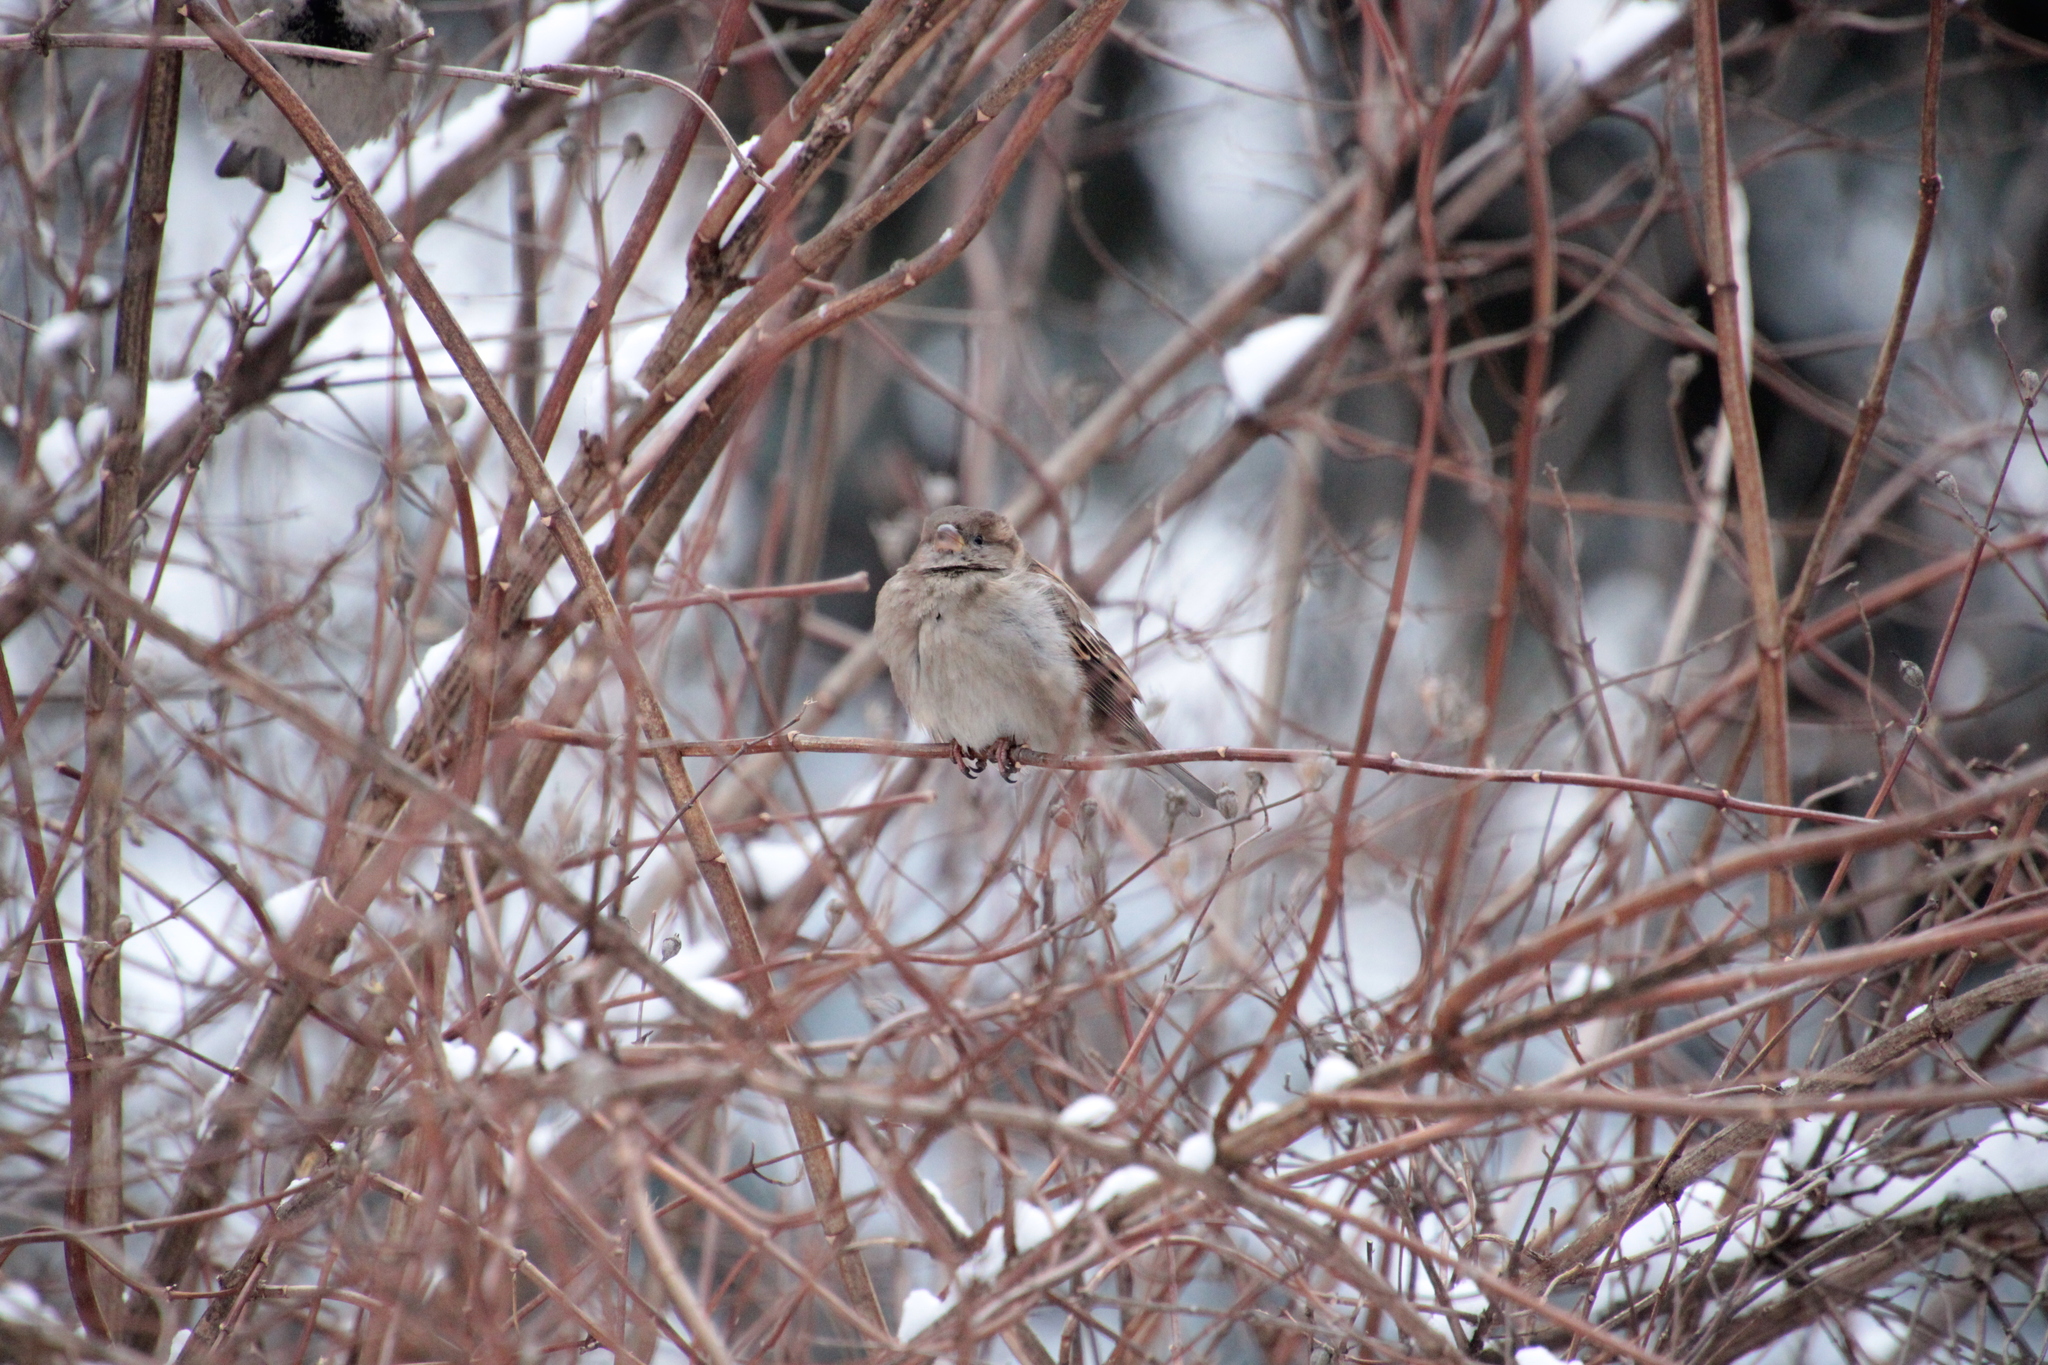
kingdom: Animalia
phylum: Chordata
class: Aves
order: Passeriformes
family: Passeridae
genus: Passer
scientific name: Passer domesticus
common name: House sparrow
